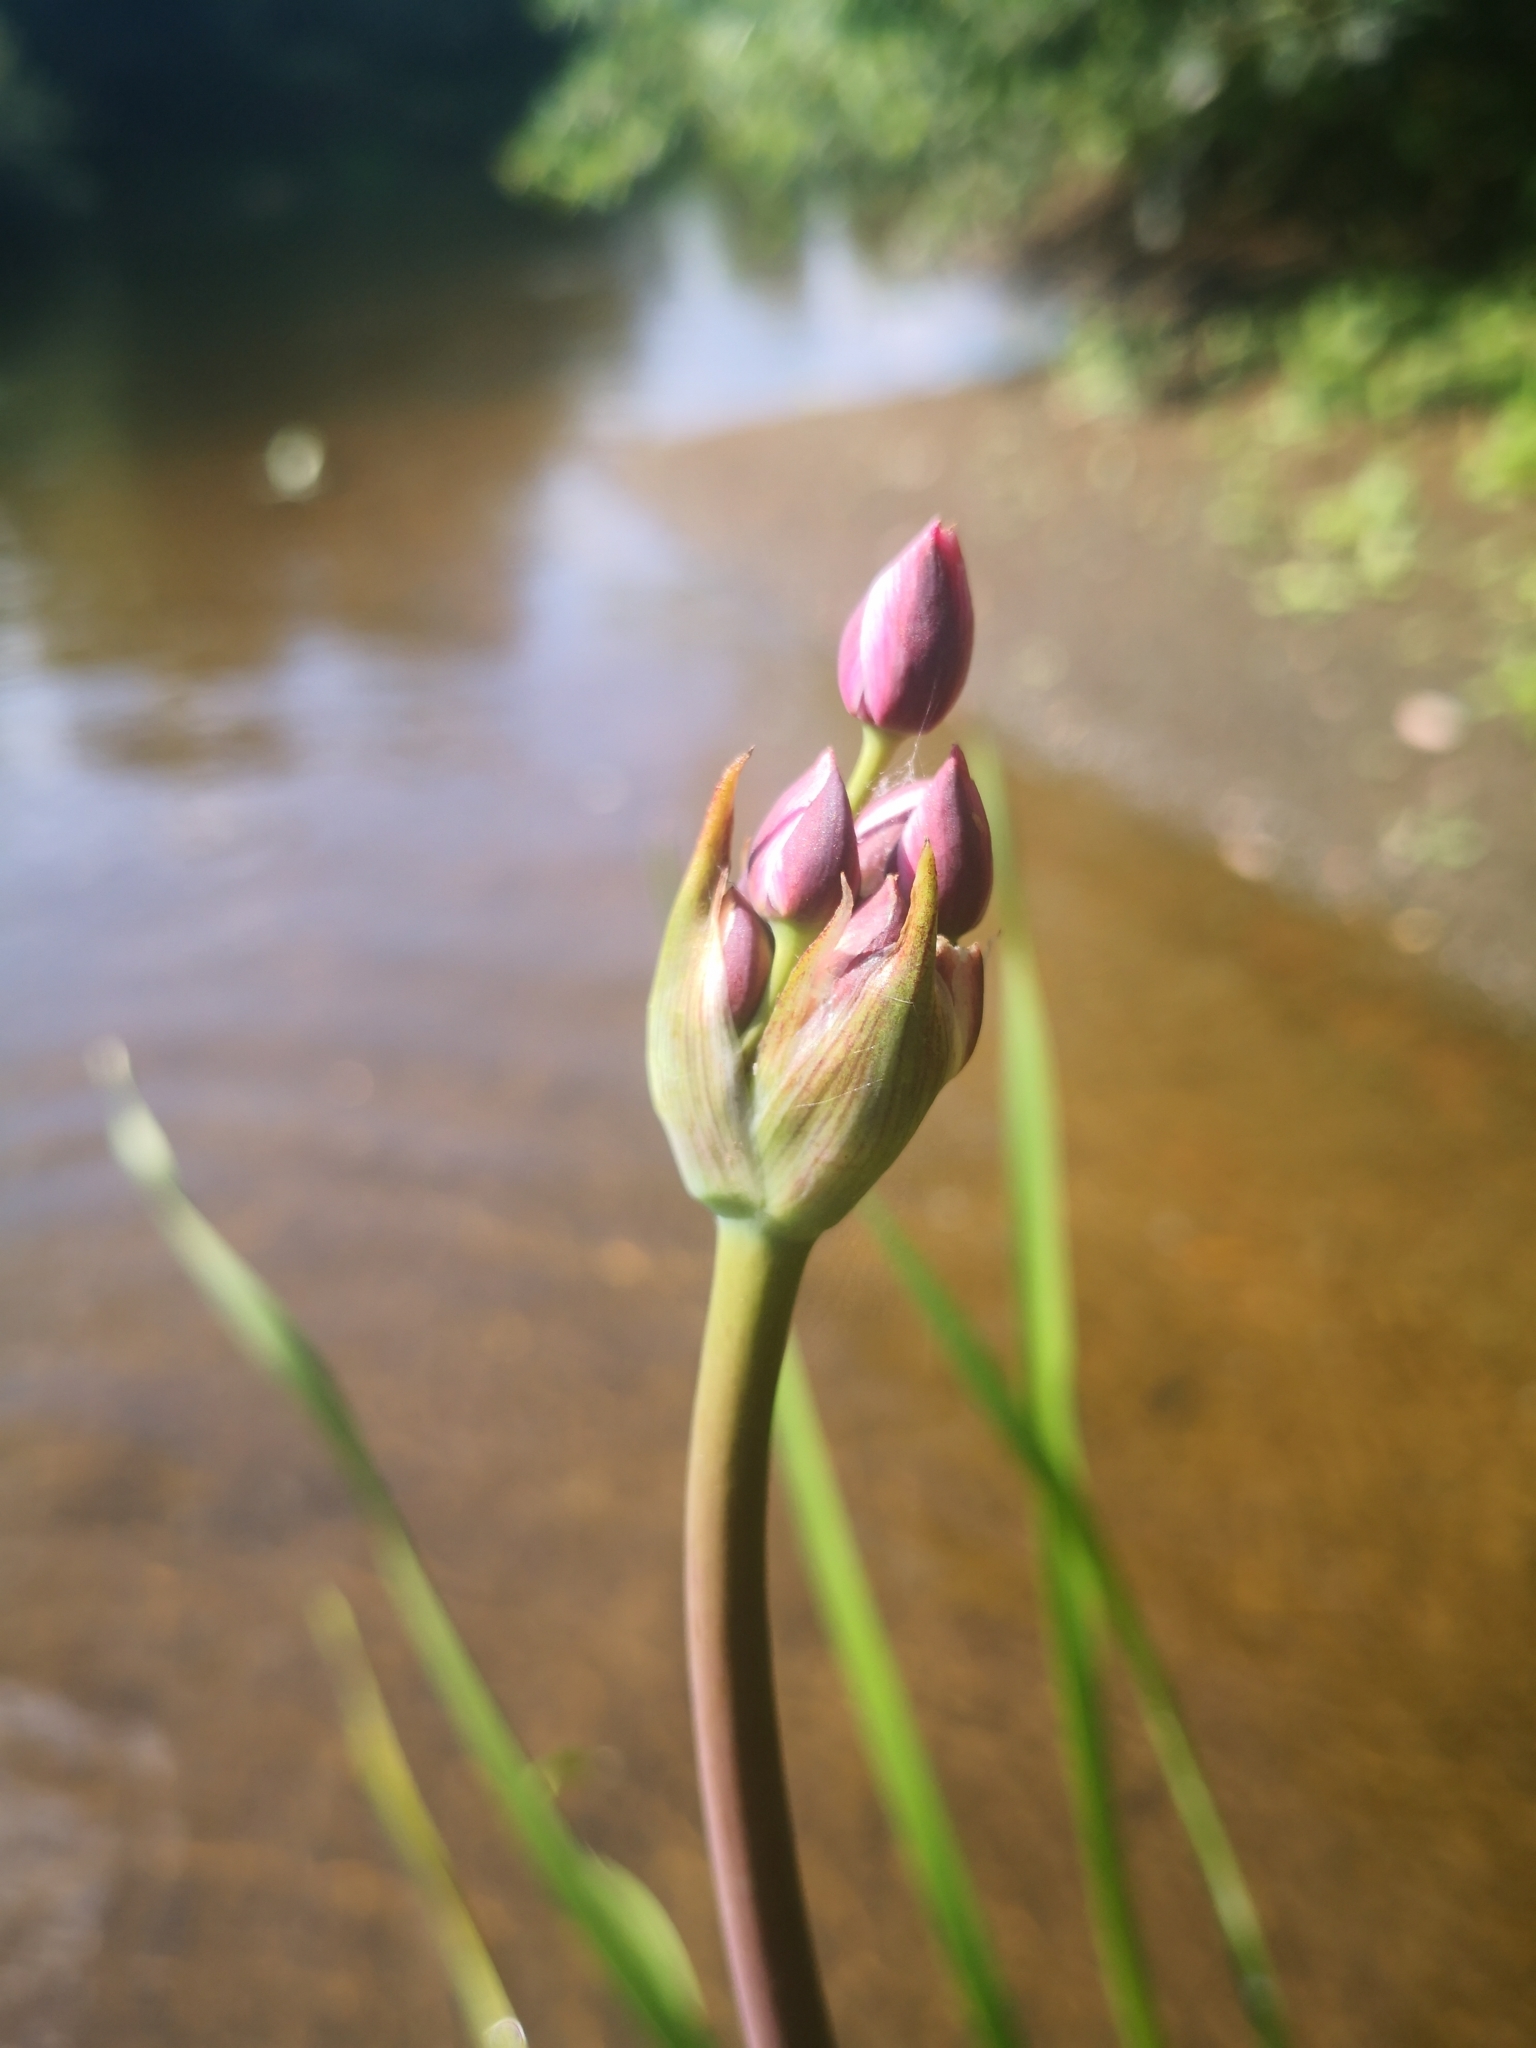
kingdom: Plantae
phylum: Tracheophyta
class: Liliopsida
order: Alismatales
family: Butomaceae
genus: Butomus
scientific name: Butomus umbellatus
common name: Flowering-rush
